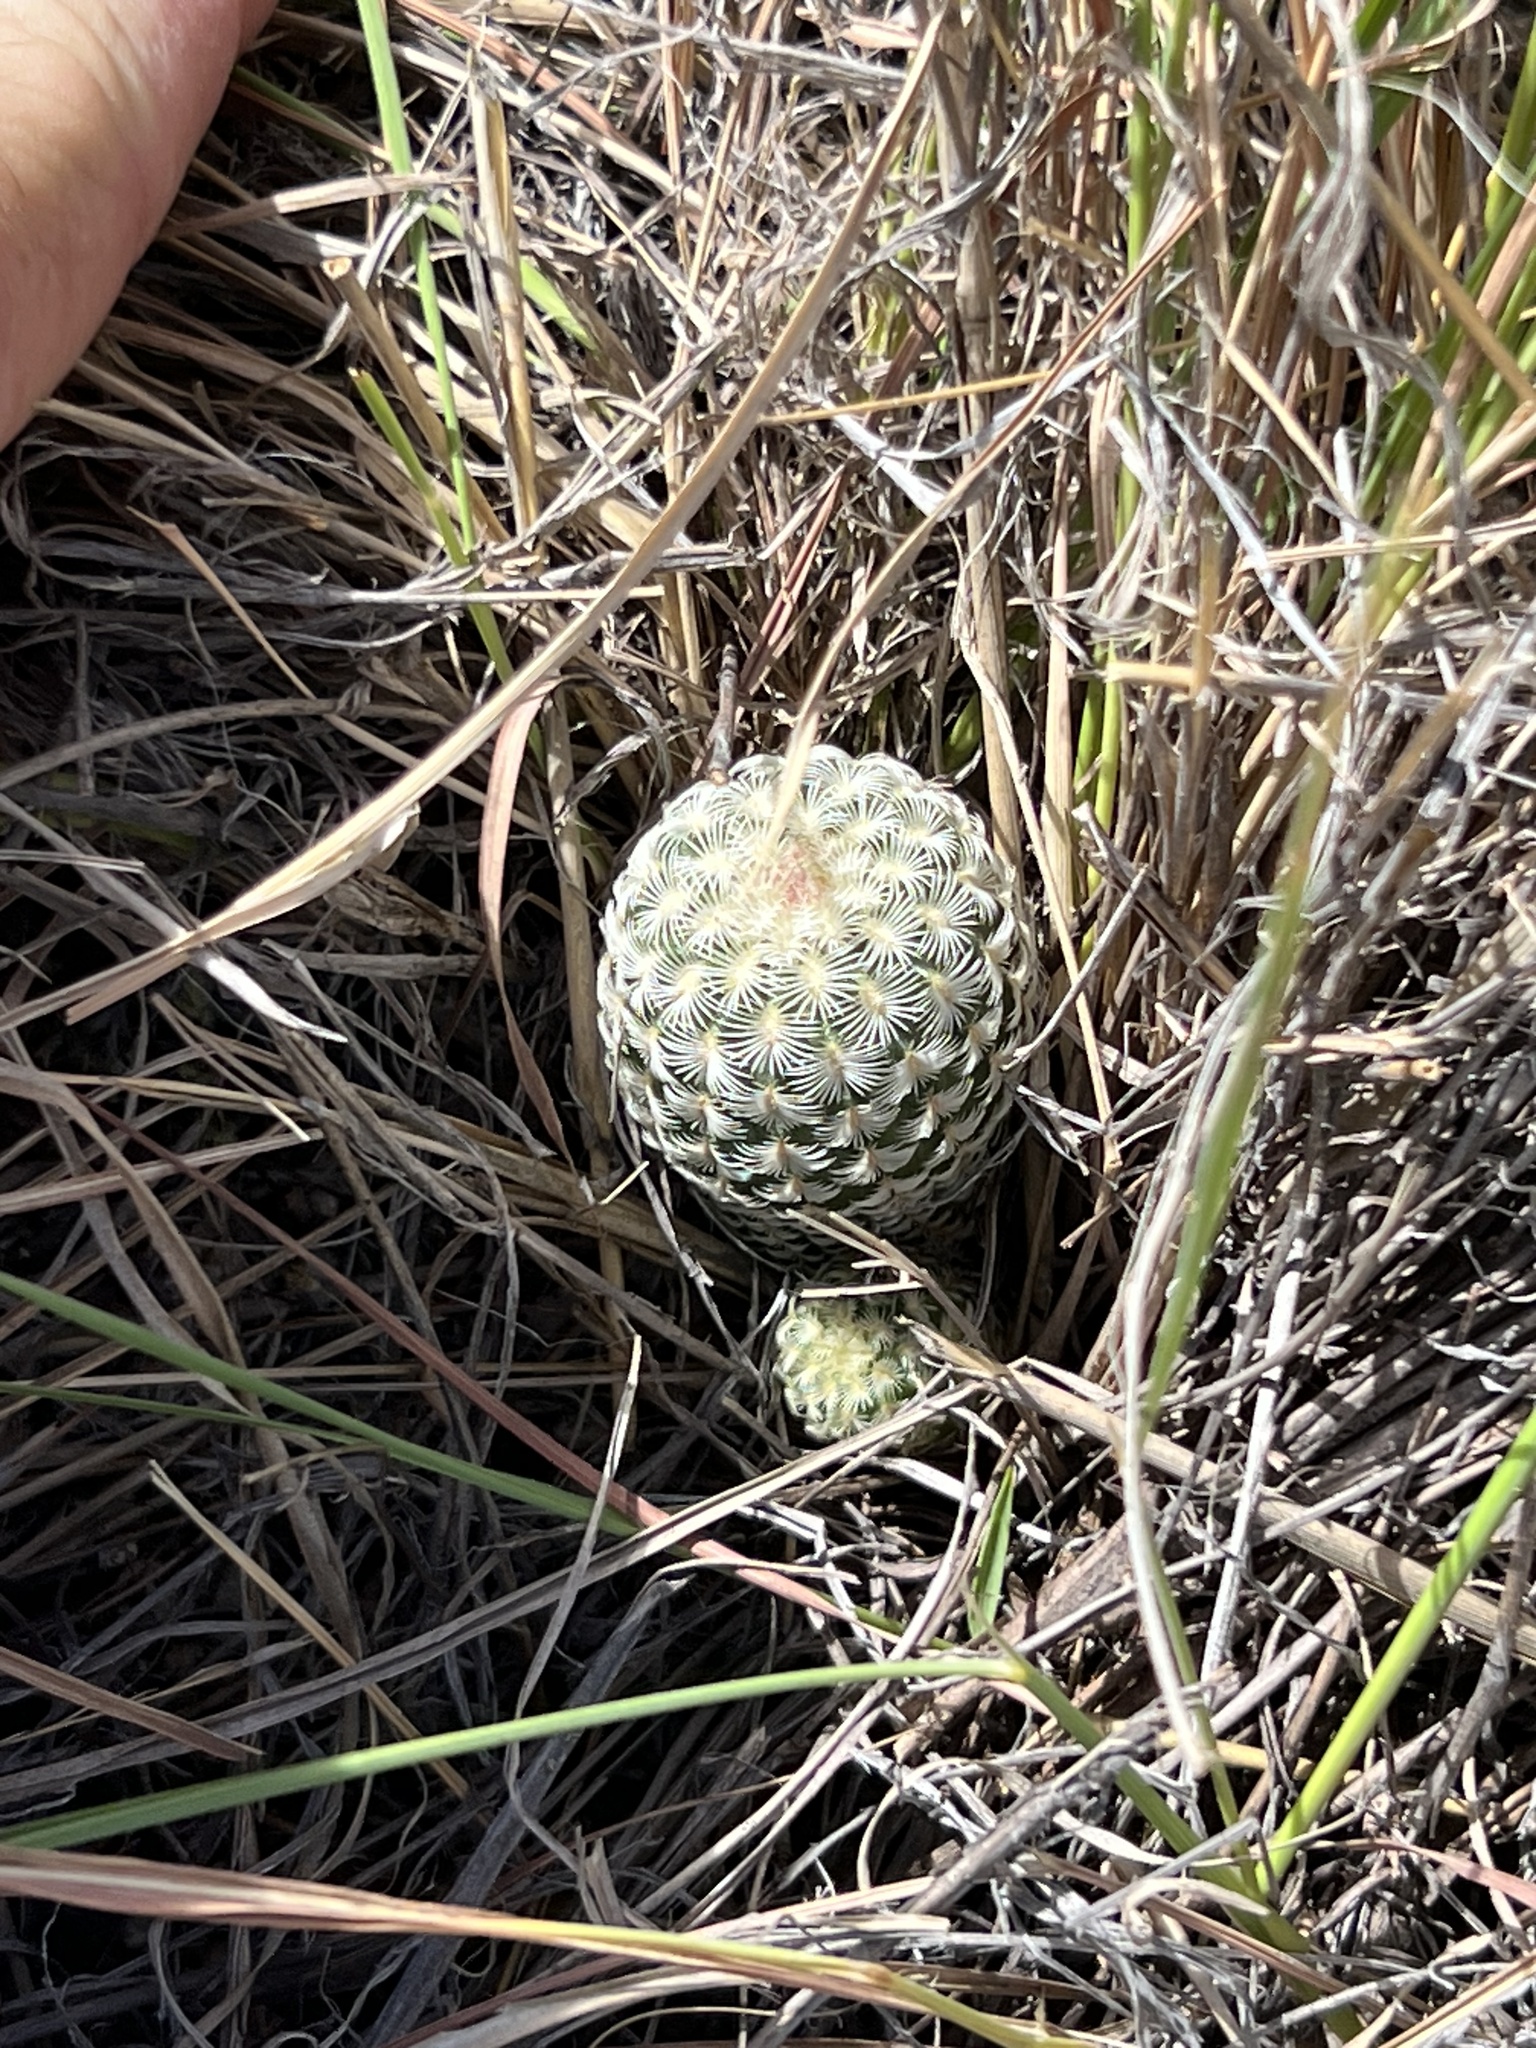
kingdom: Plantae
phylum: Tracheophyta
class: Magnoliopsida
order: Caryophyllales
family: Cactaceae
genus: Echinocereus
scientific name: Echinocereus rigidissimus
